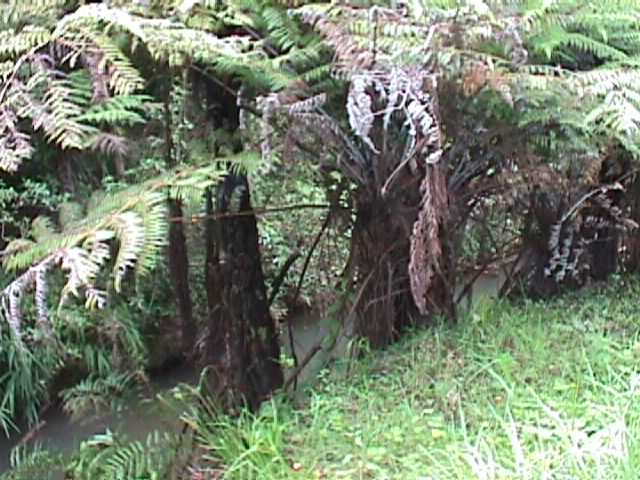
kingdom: Plantae
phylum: Tracheophyta
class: Polypodiopsida
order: Cyatheales
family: Cyatheaceae
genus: Alsophila
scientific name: Alsophila dealbata
